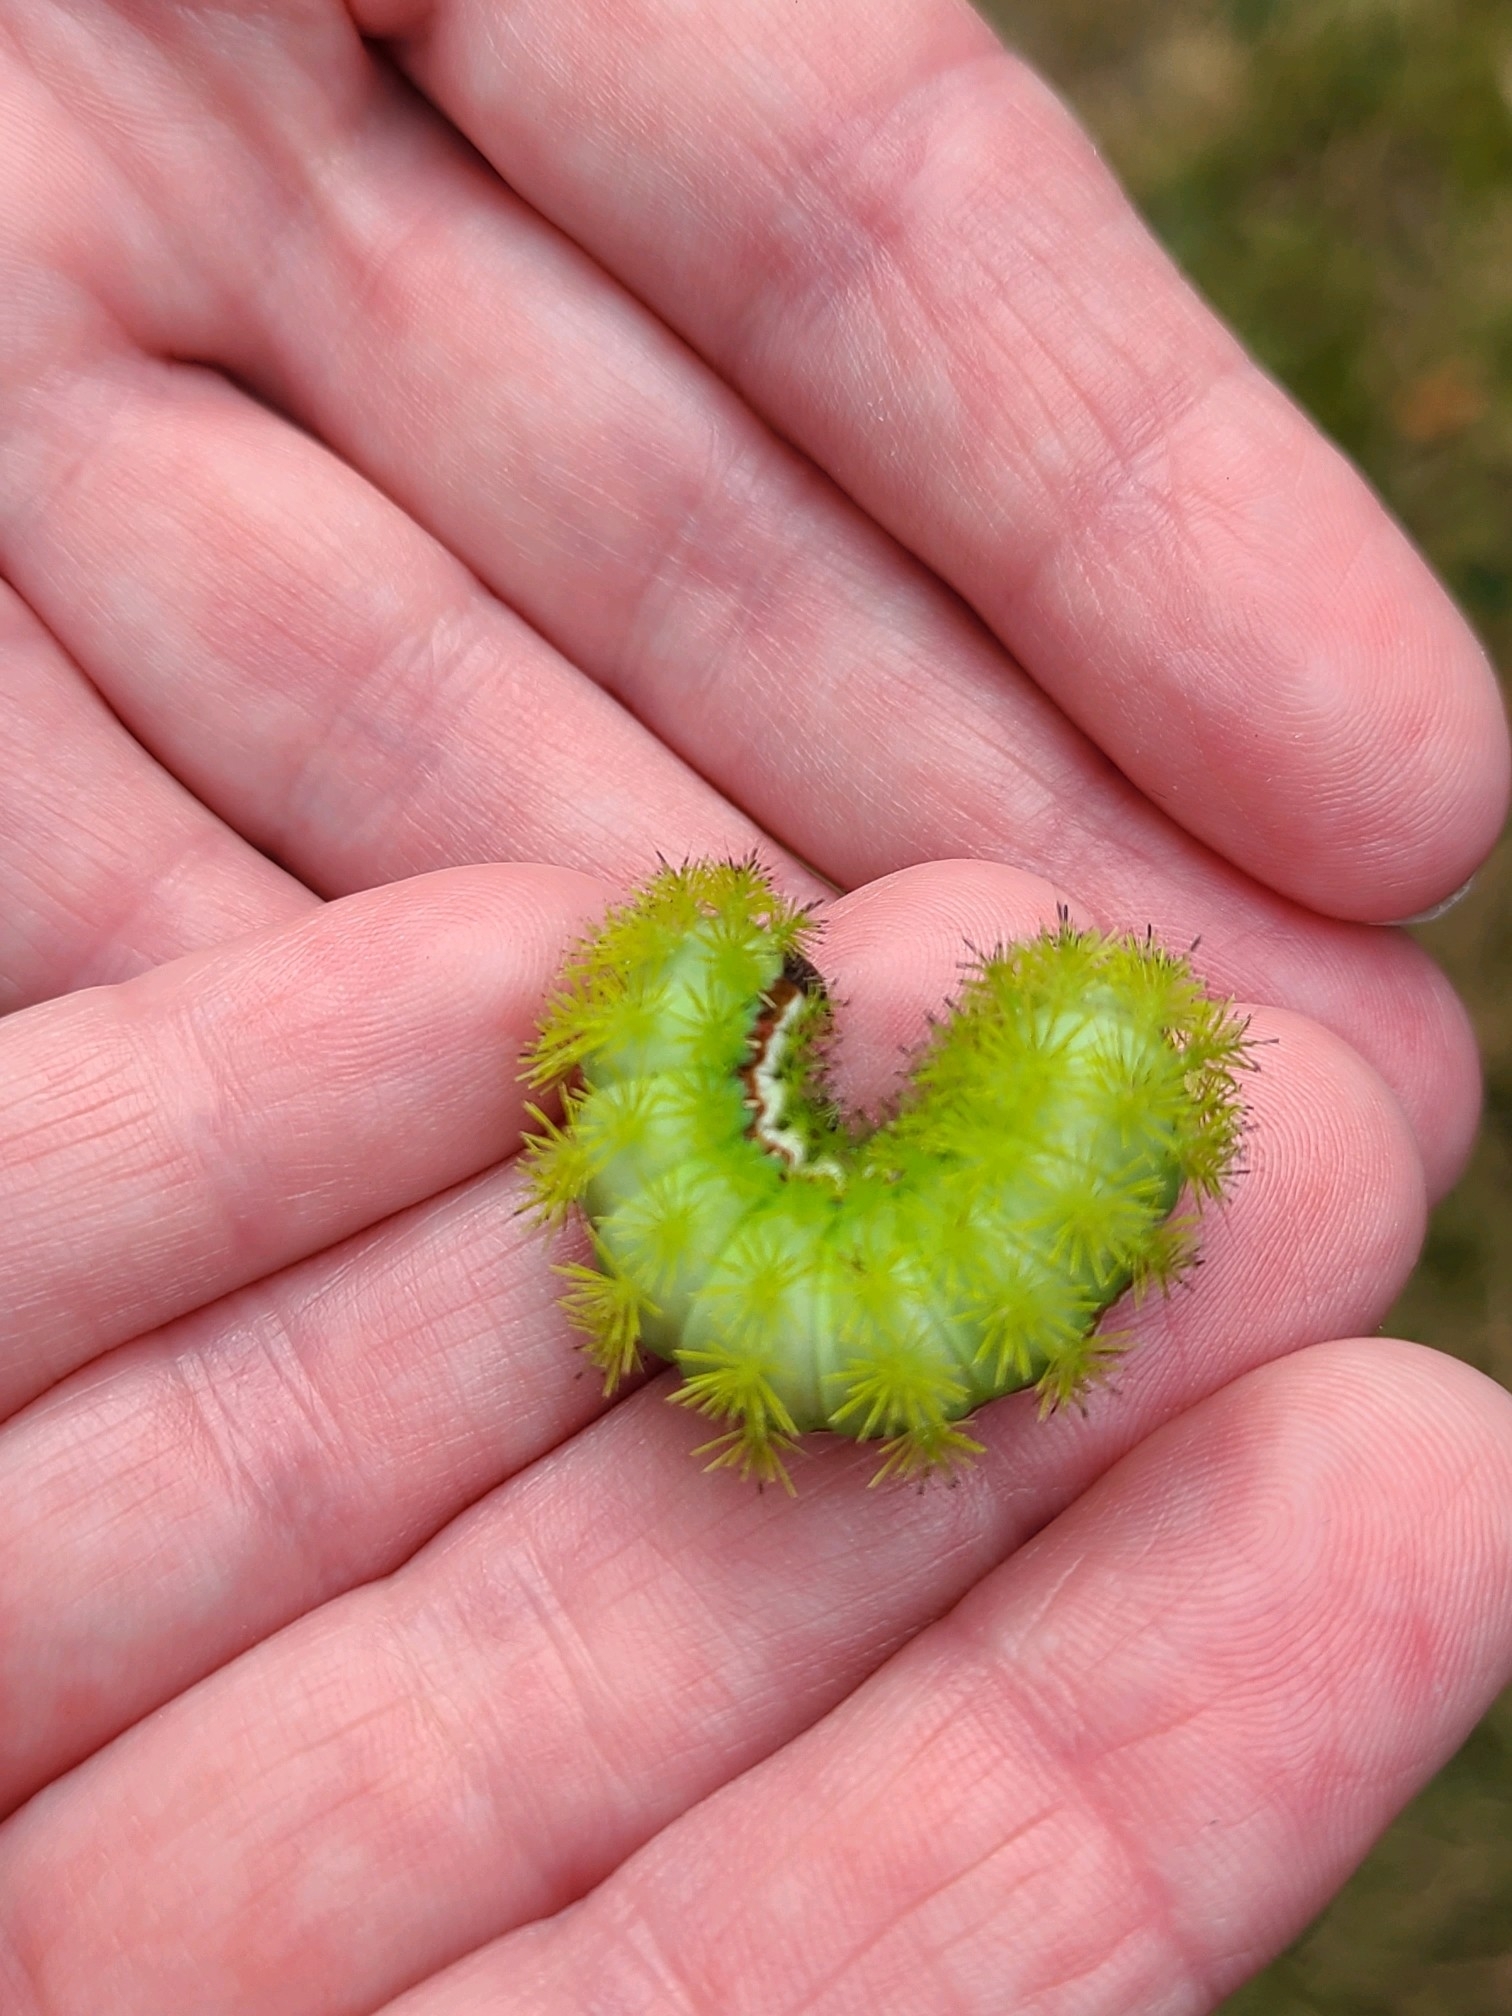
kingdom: Animalia
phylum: Arthropoda
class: Insecta
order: Lepidoptera
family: Saturniidae
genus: Automeris
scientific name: Automeris io
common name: Io moth
